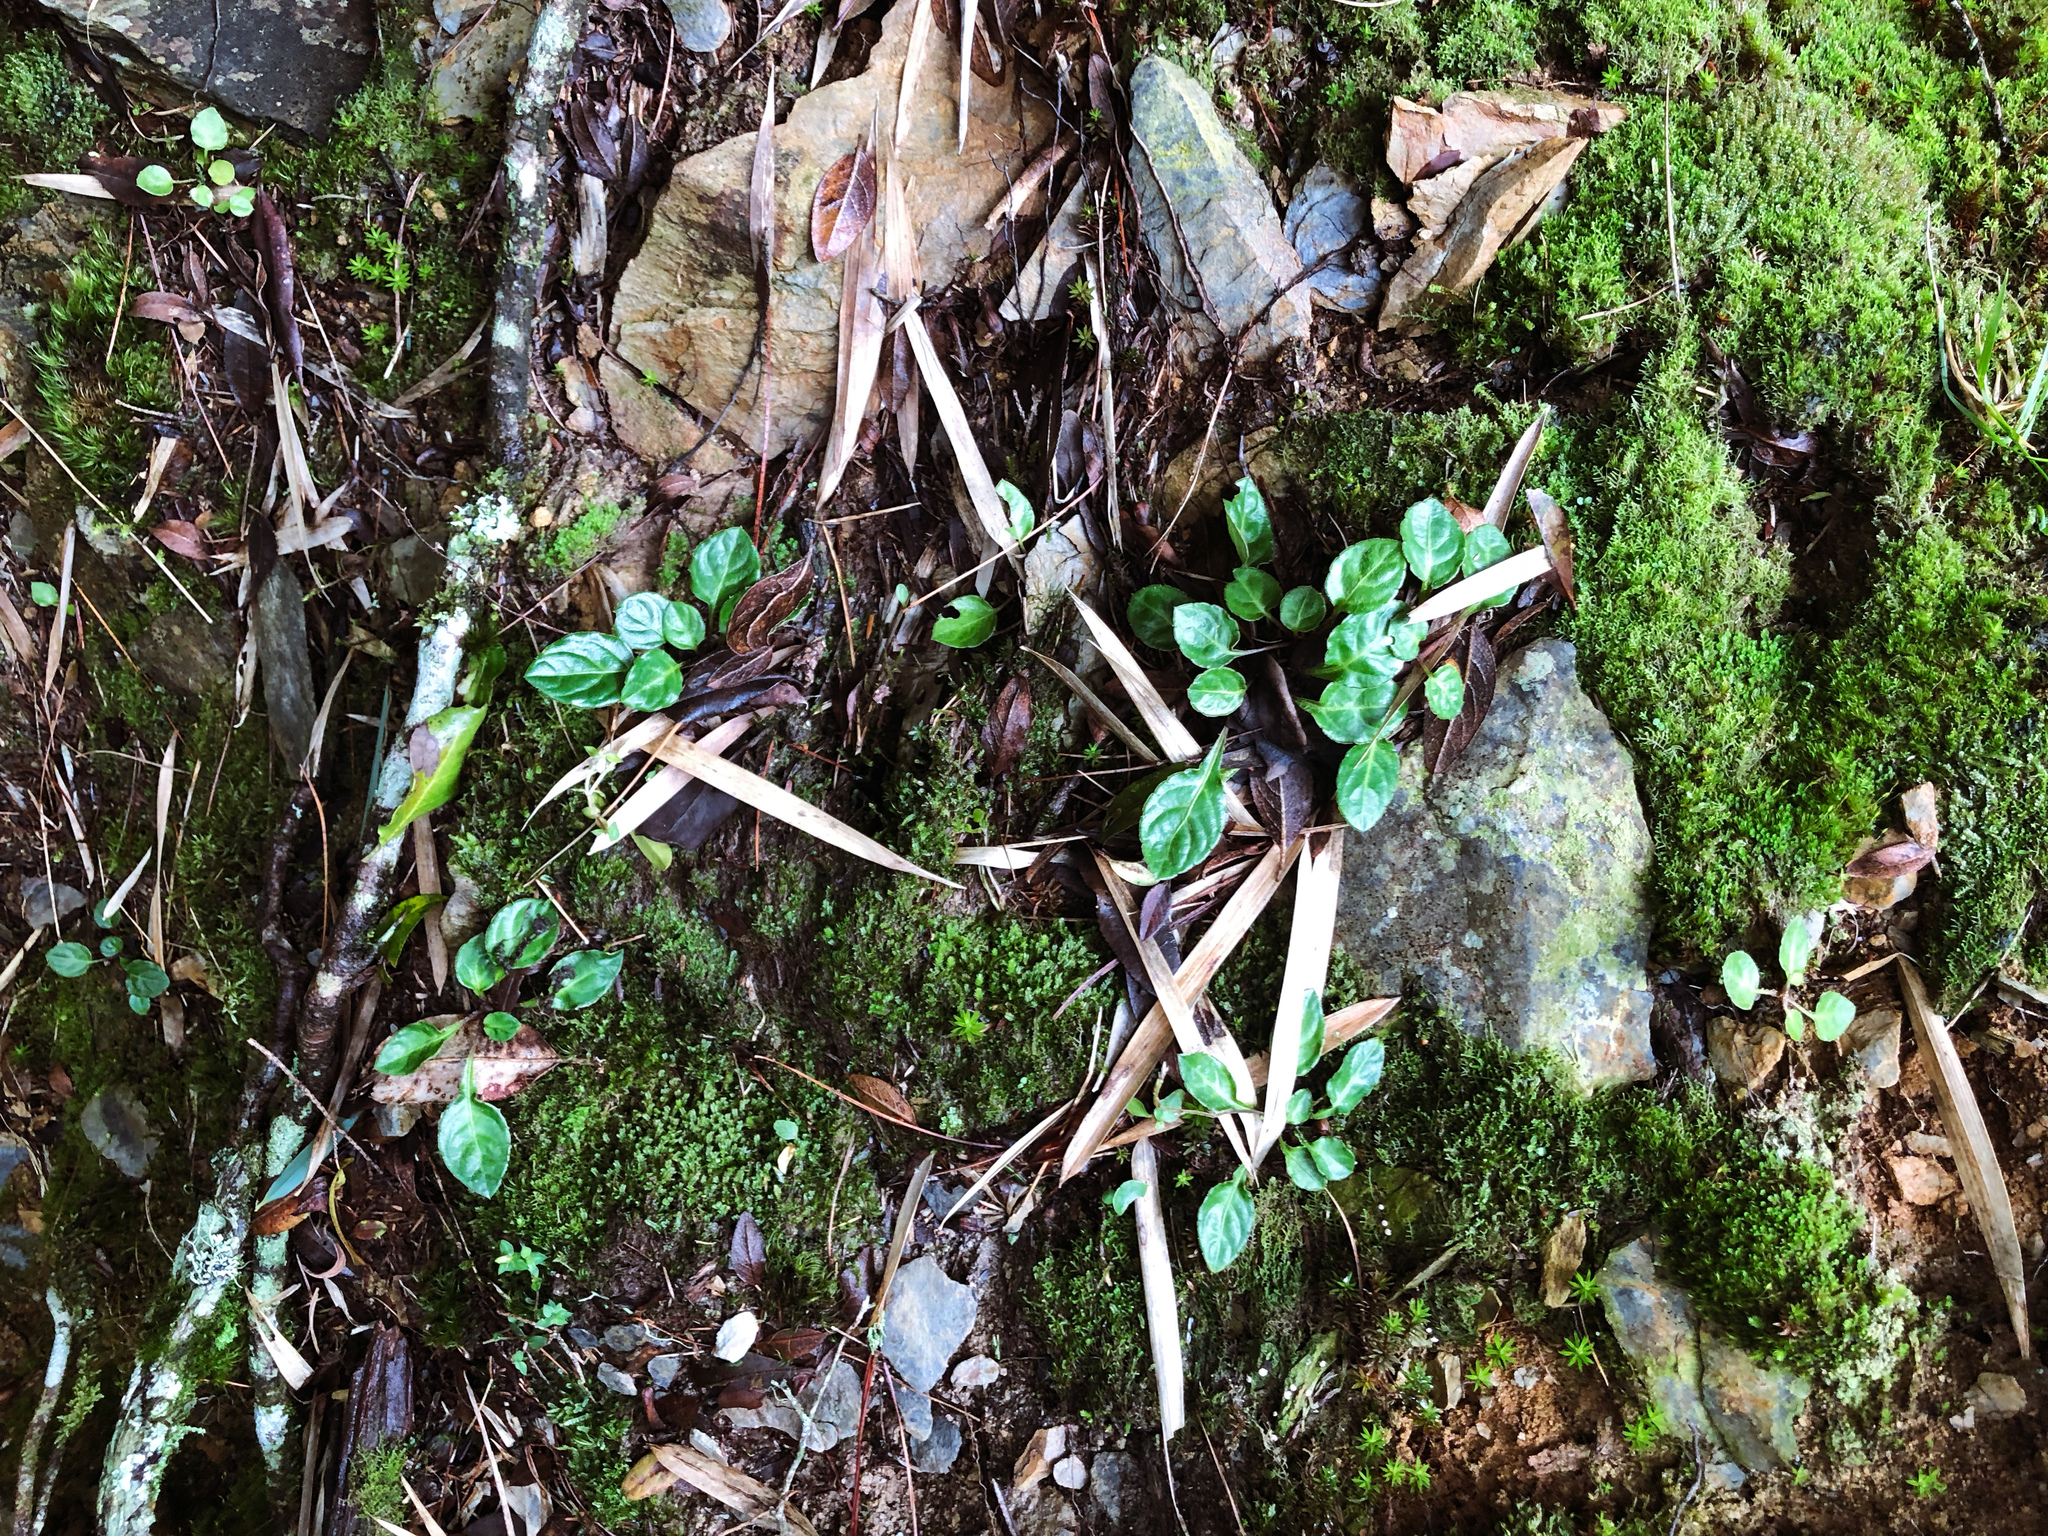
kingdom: Plantae
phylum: Tracheophyta
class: Magnoliopsida
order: Asterales
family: Asteraceae
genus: Ainsliaea
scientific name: Ainsliaea henryi
